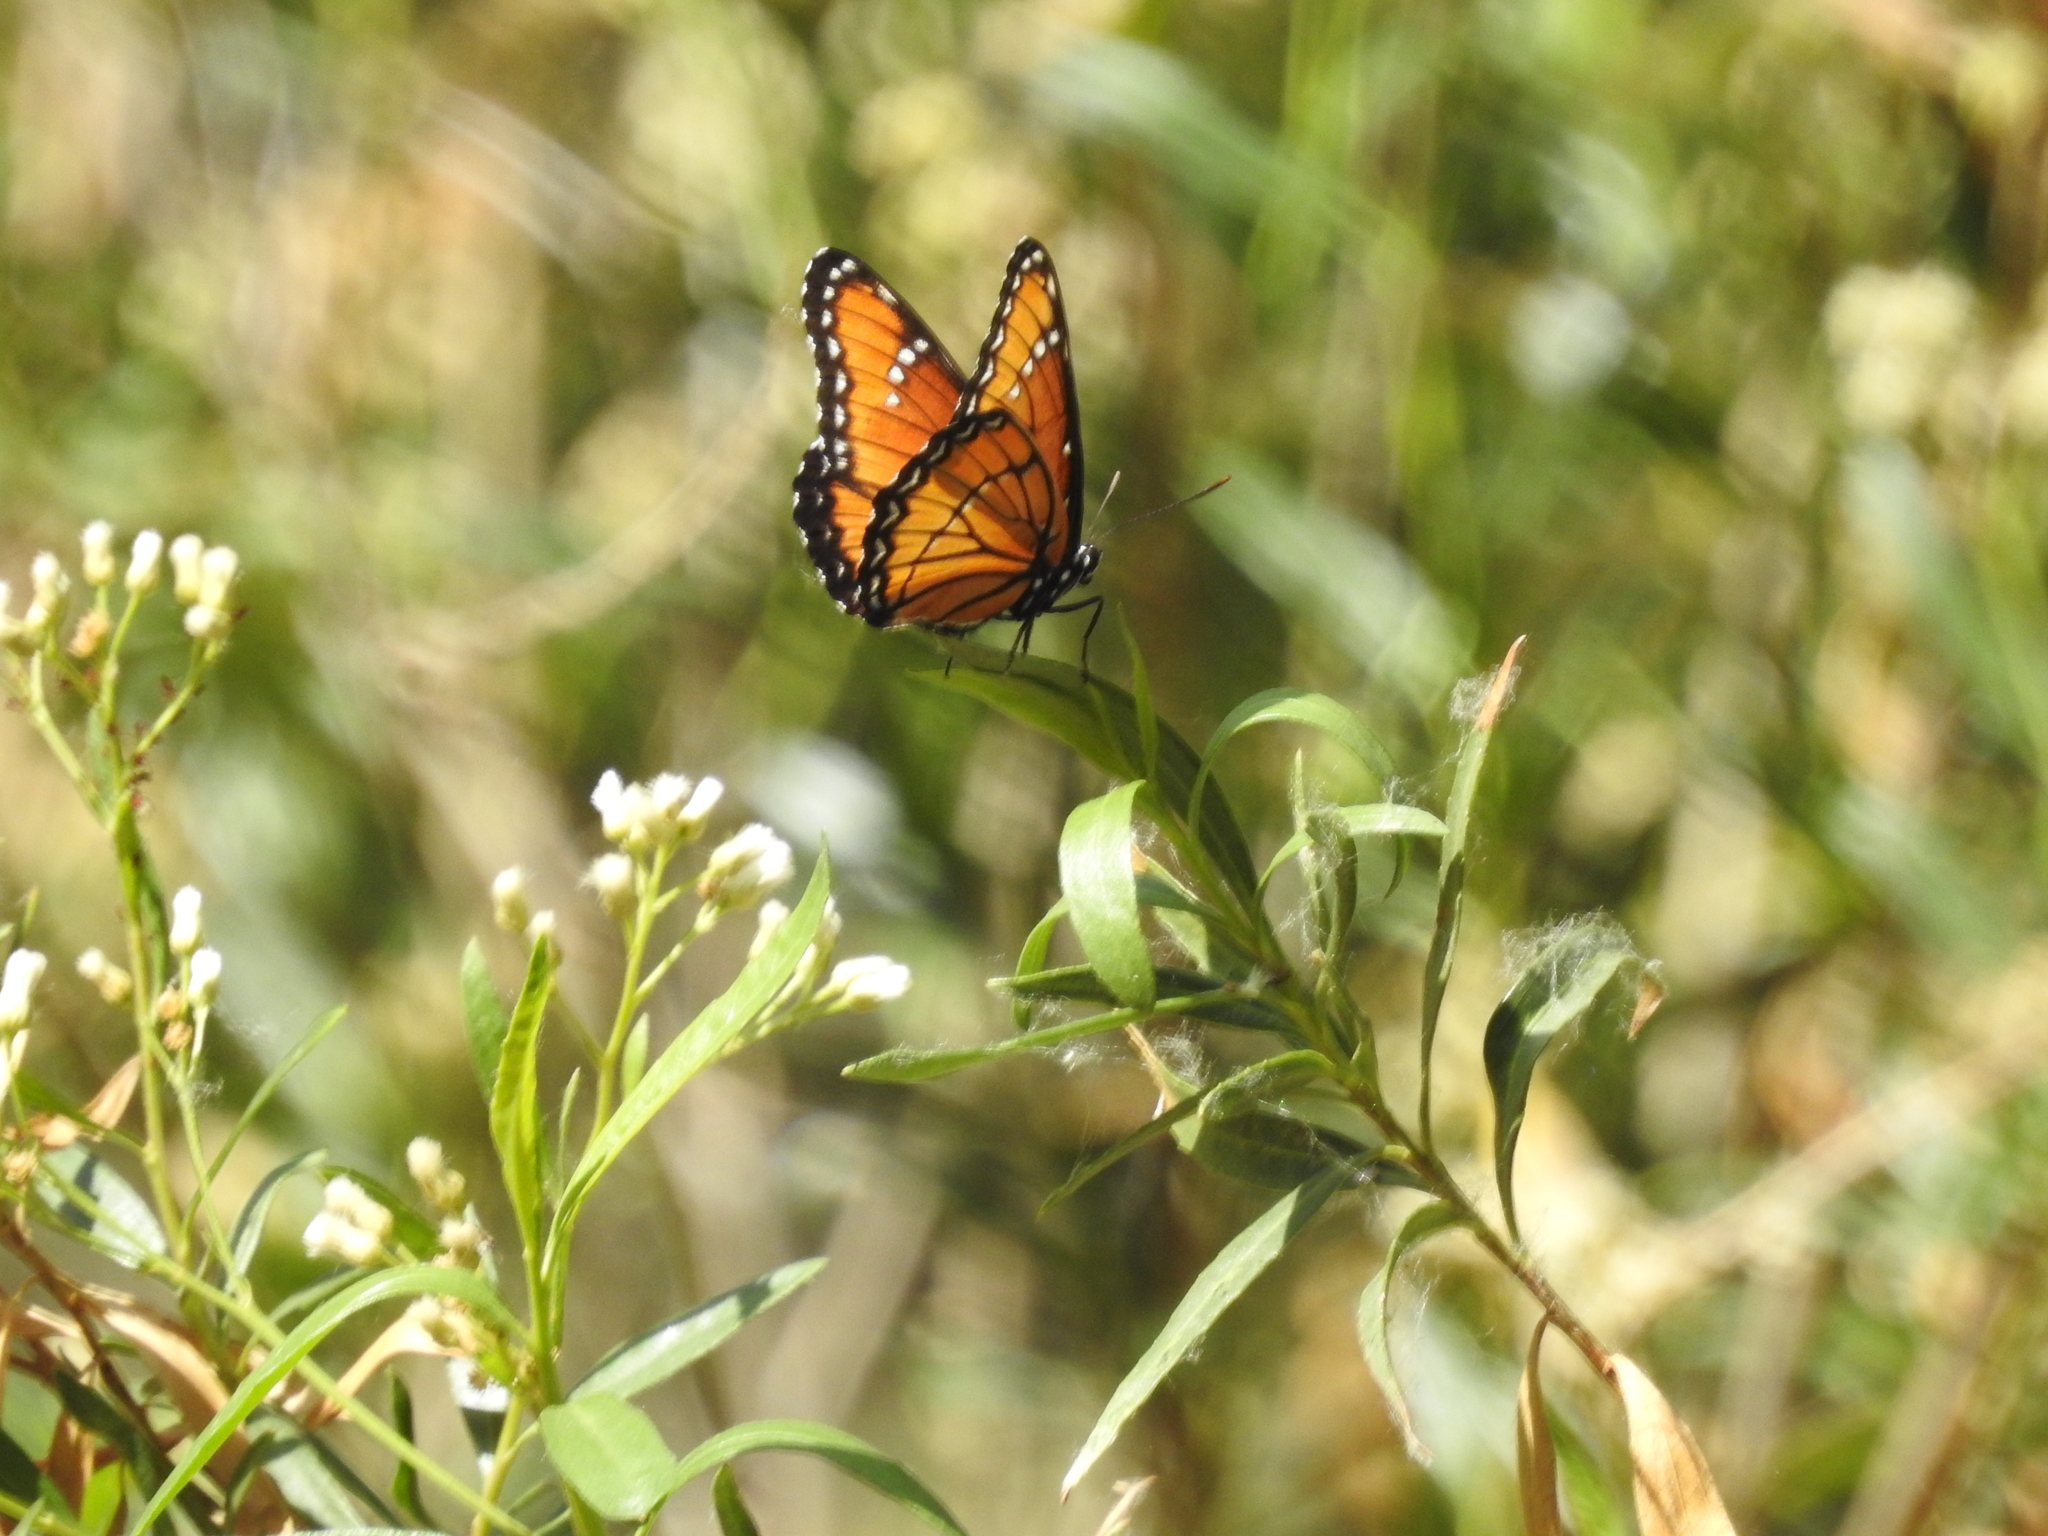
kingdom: Animalia
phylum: Arthropoda
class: Insecta
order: Lepidoptera
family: Nymphalidae
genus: Limenitis
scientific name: Limenitis archippus
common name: Viceroy
